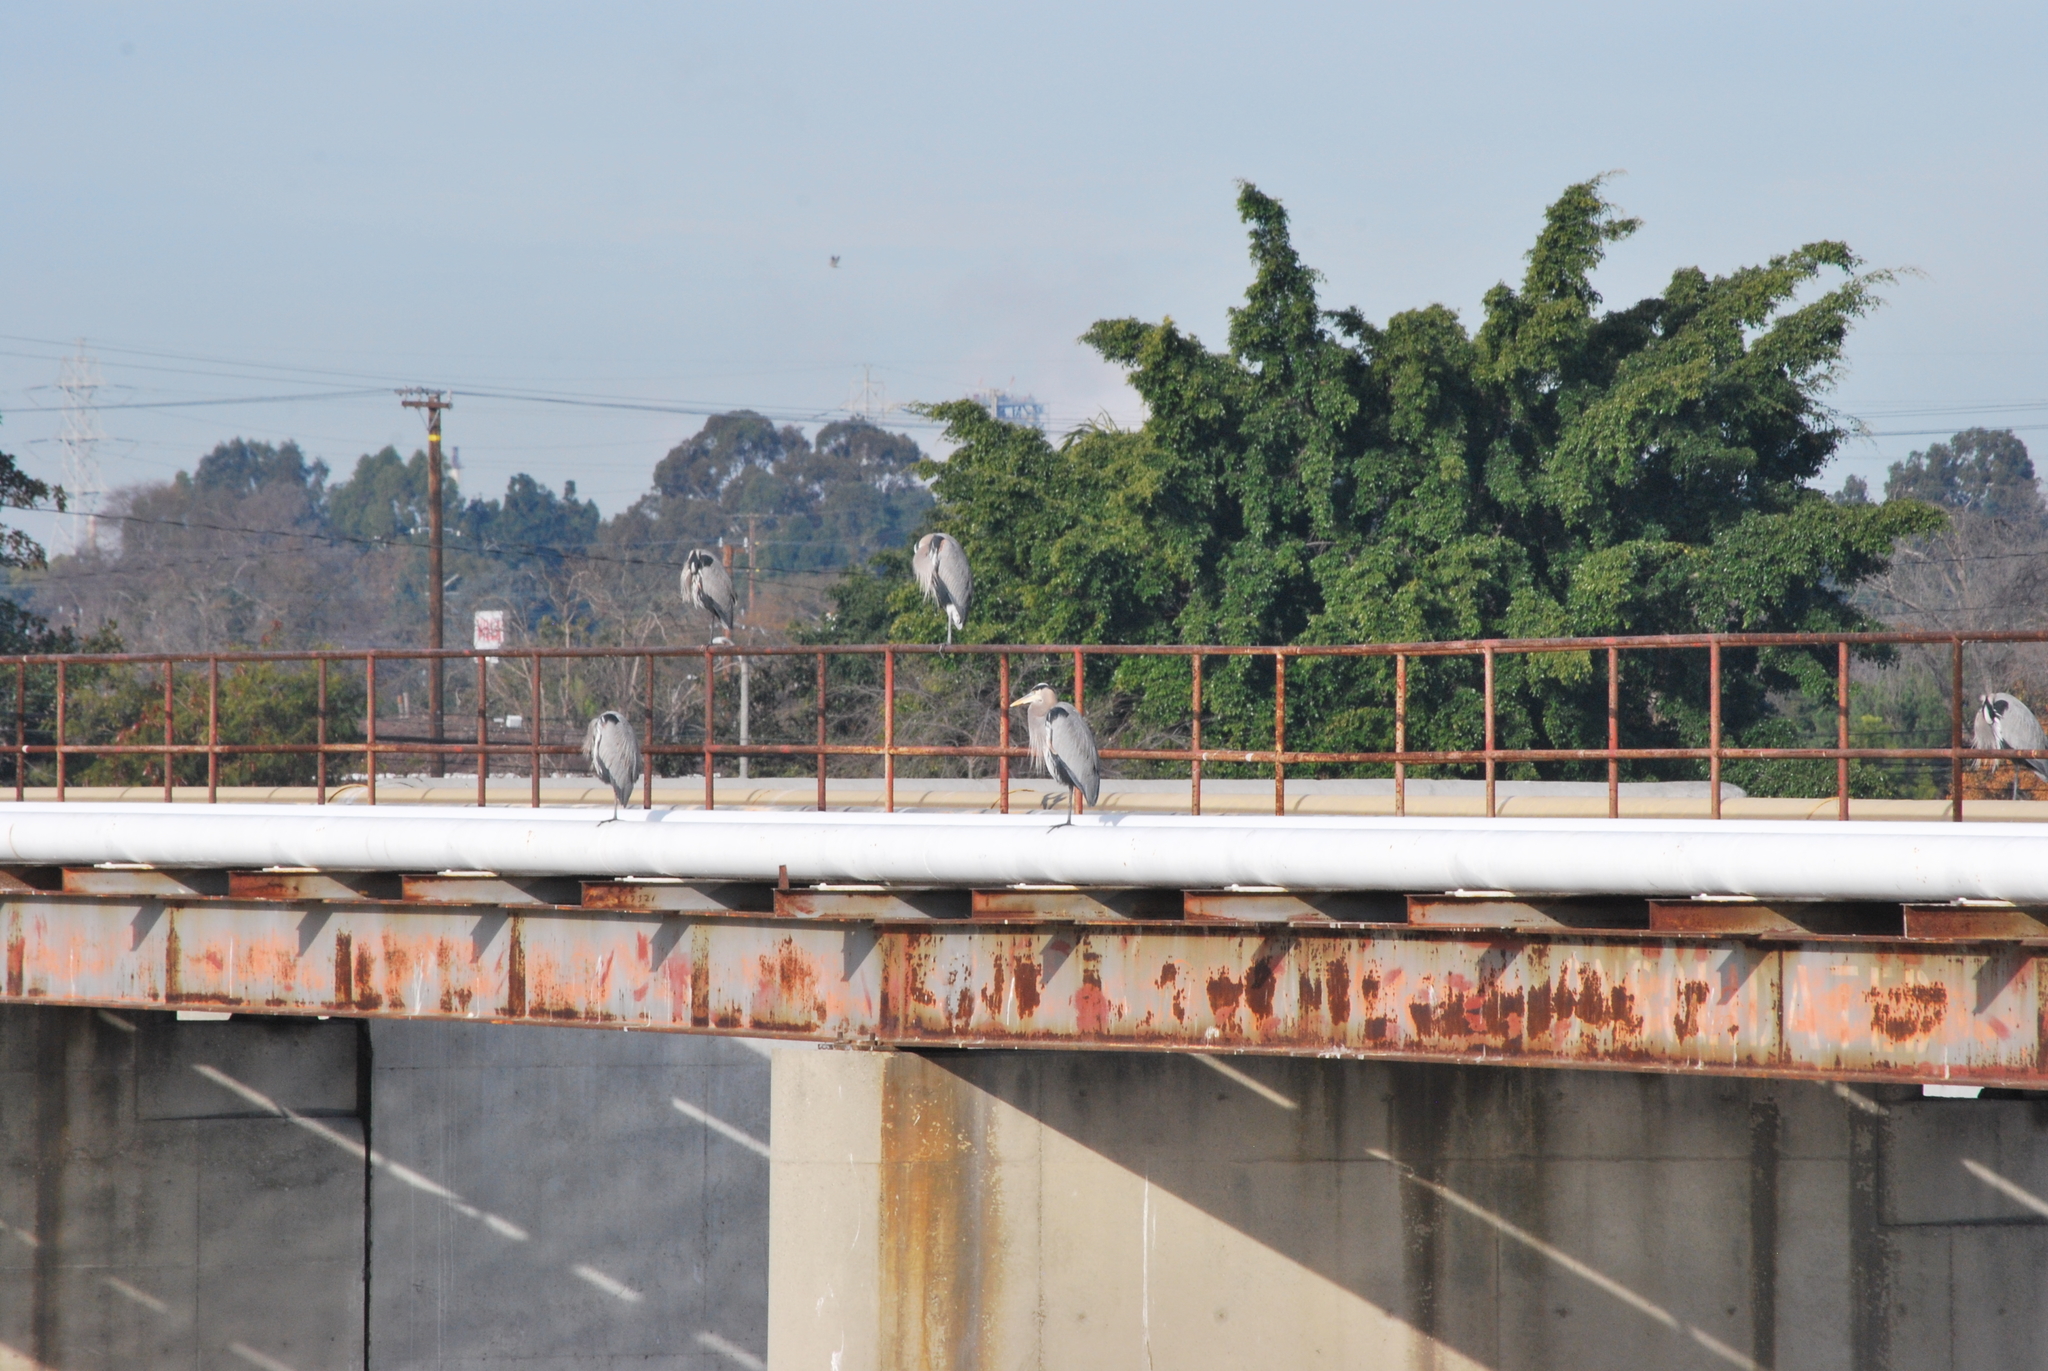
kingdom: Animalia
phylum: Chordata
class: Aves
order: Pelecaniformes
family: Ardeidae
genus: Ardea
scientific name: Ardea herodias
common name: Great blue heron
